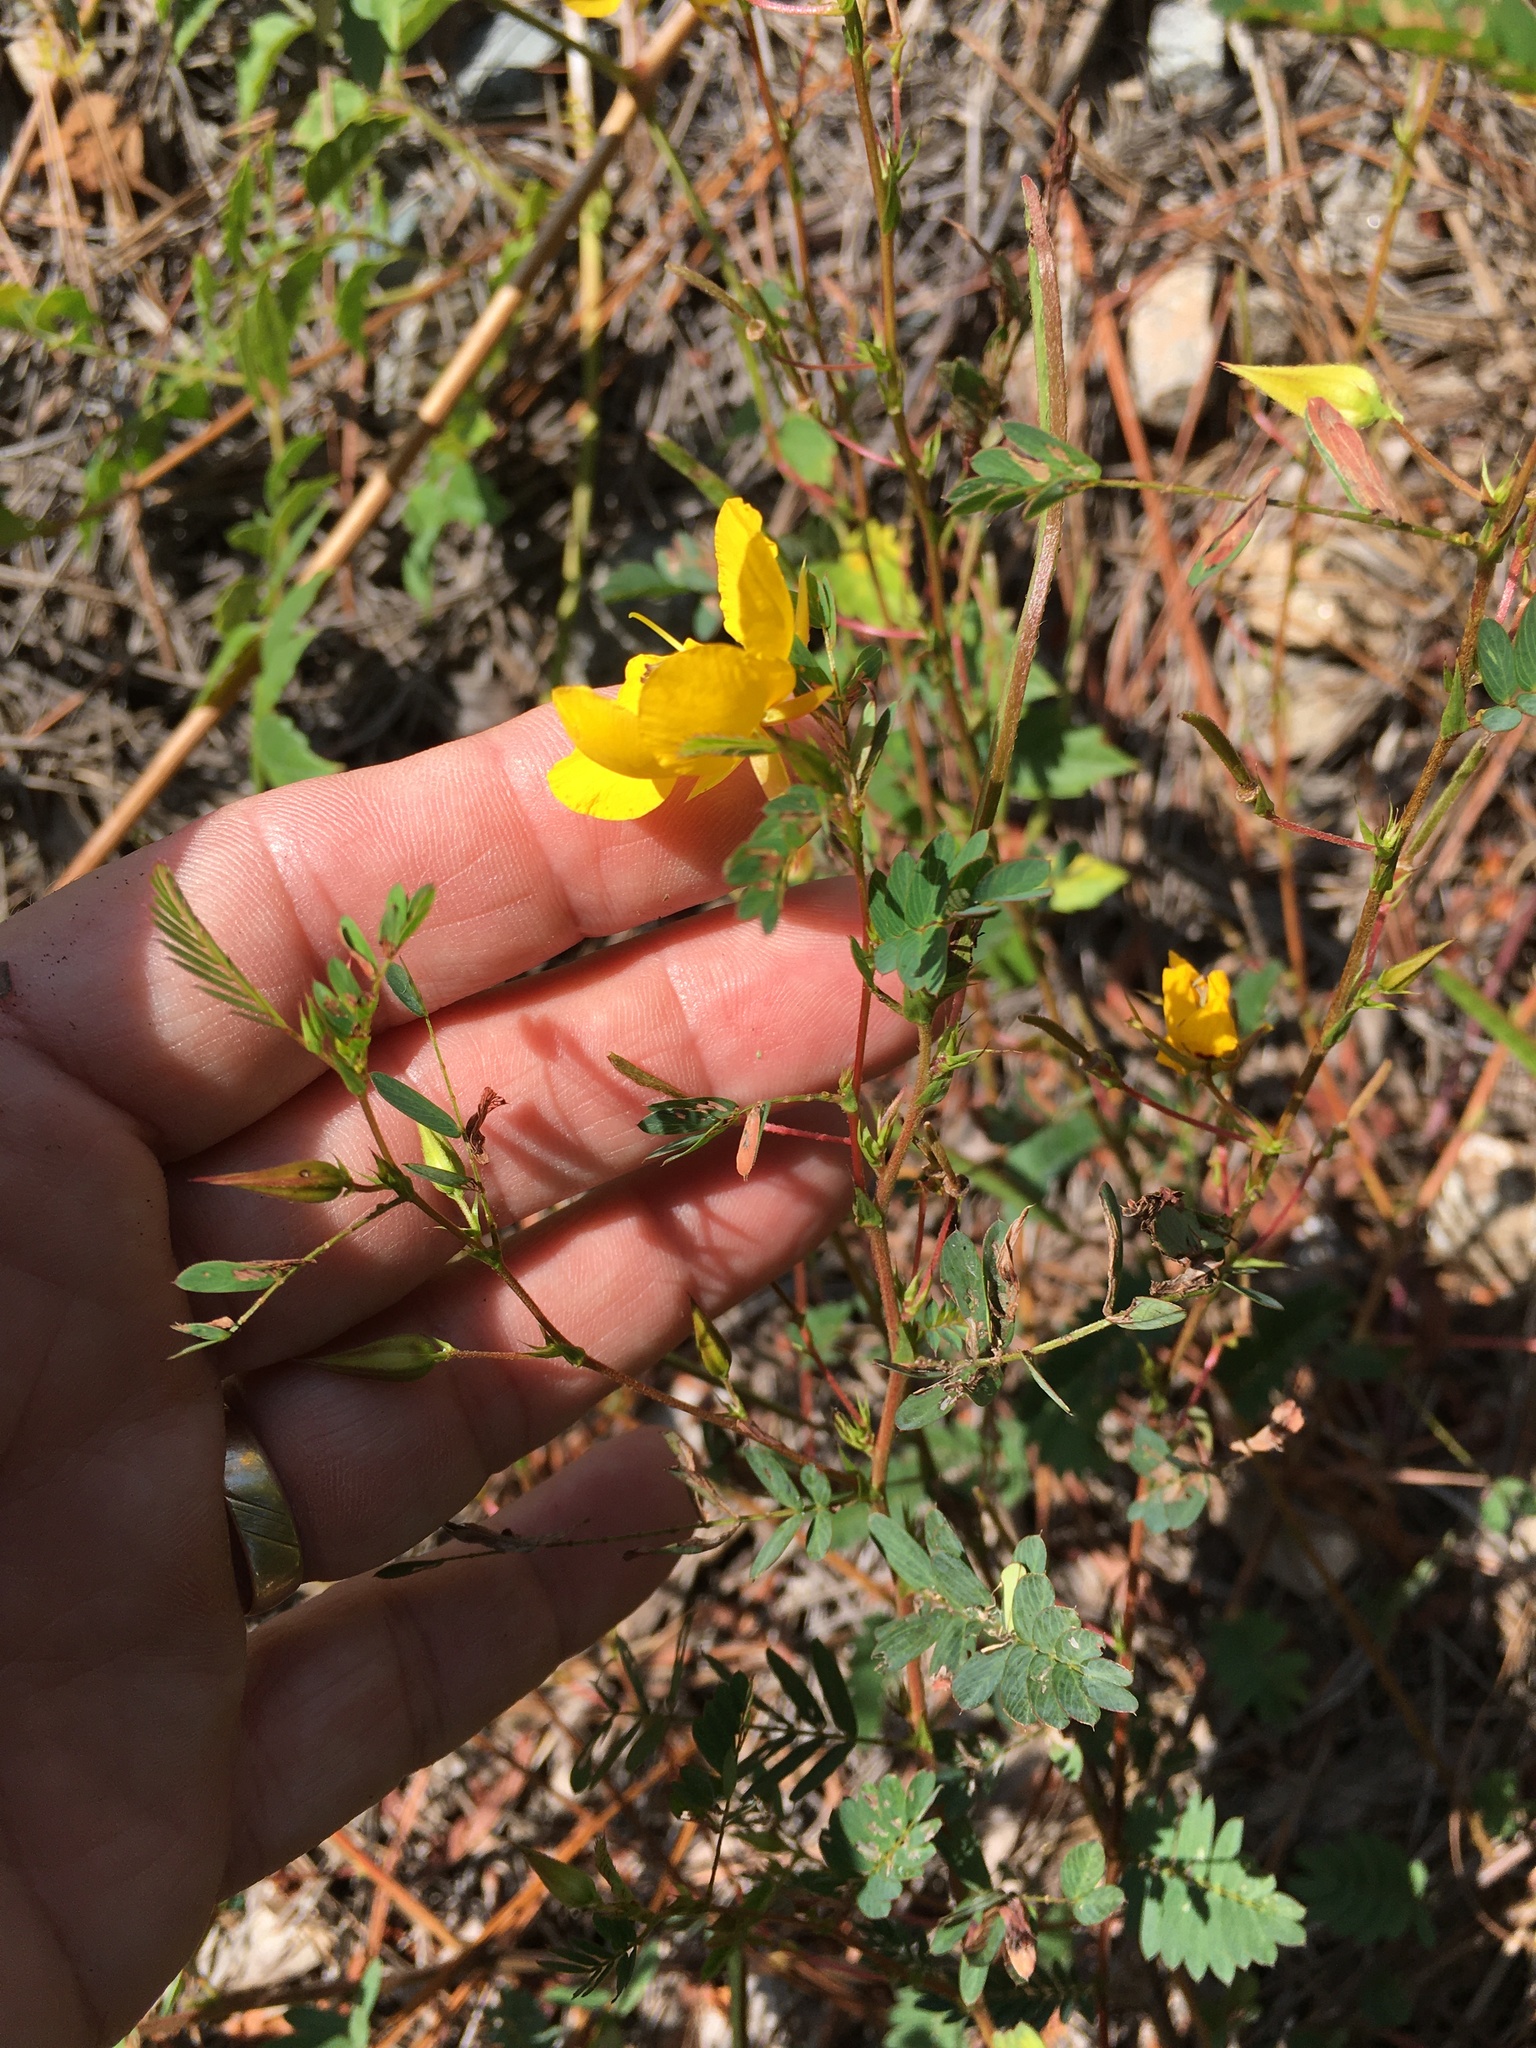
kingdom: Plantae
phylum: Tracheophyta
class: Magnoliopsida
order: Fabales
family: Fabaceae
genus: Chamaecrista
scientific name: Chamaecrista fasciculata
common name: Golden cassia
